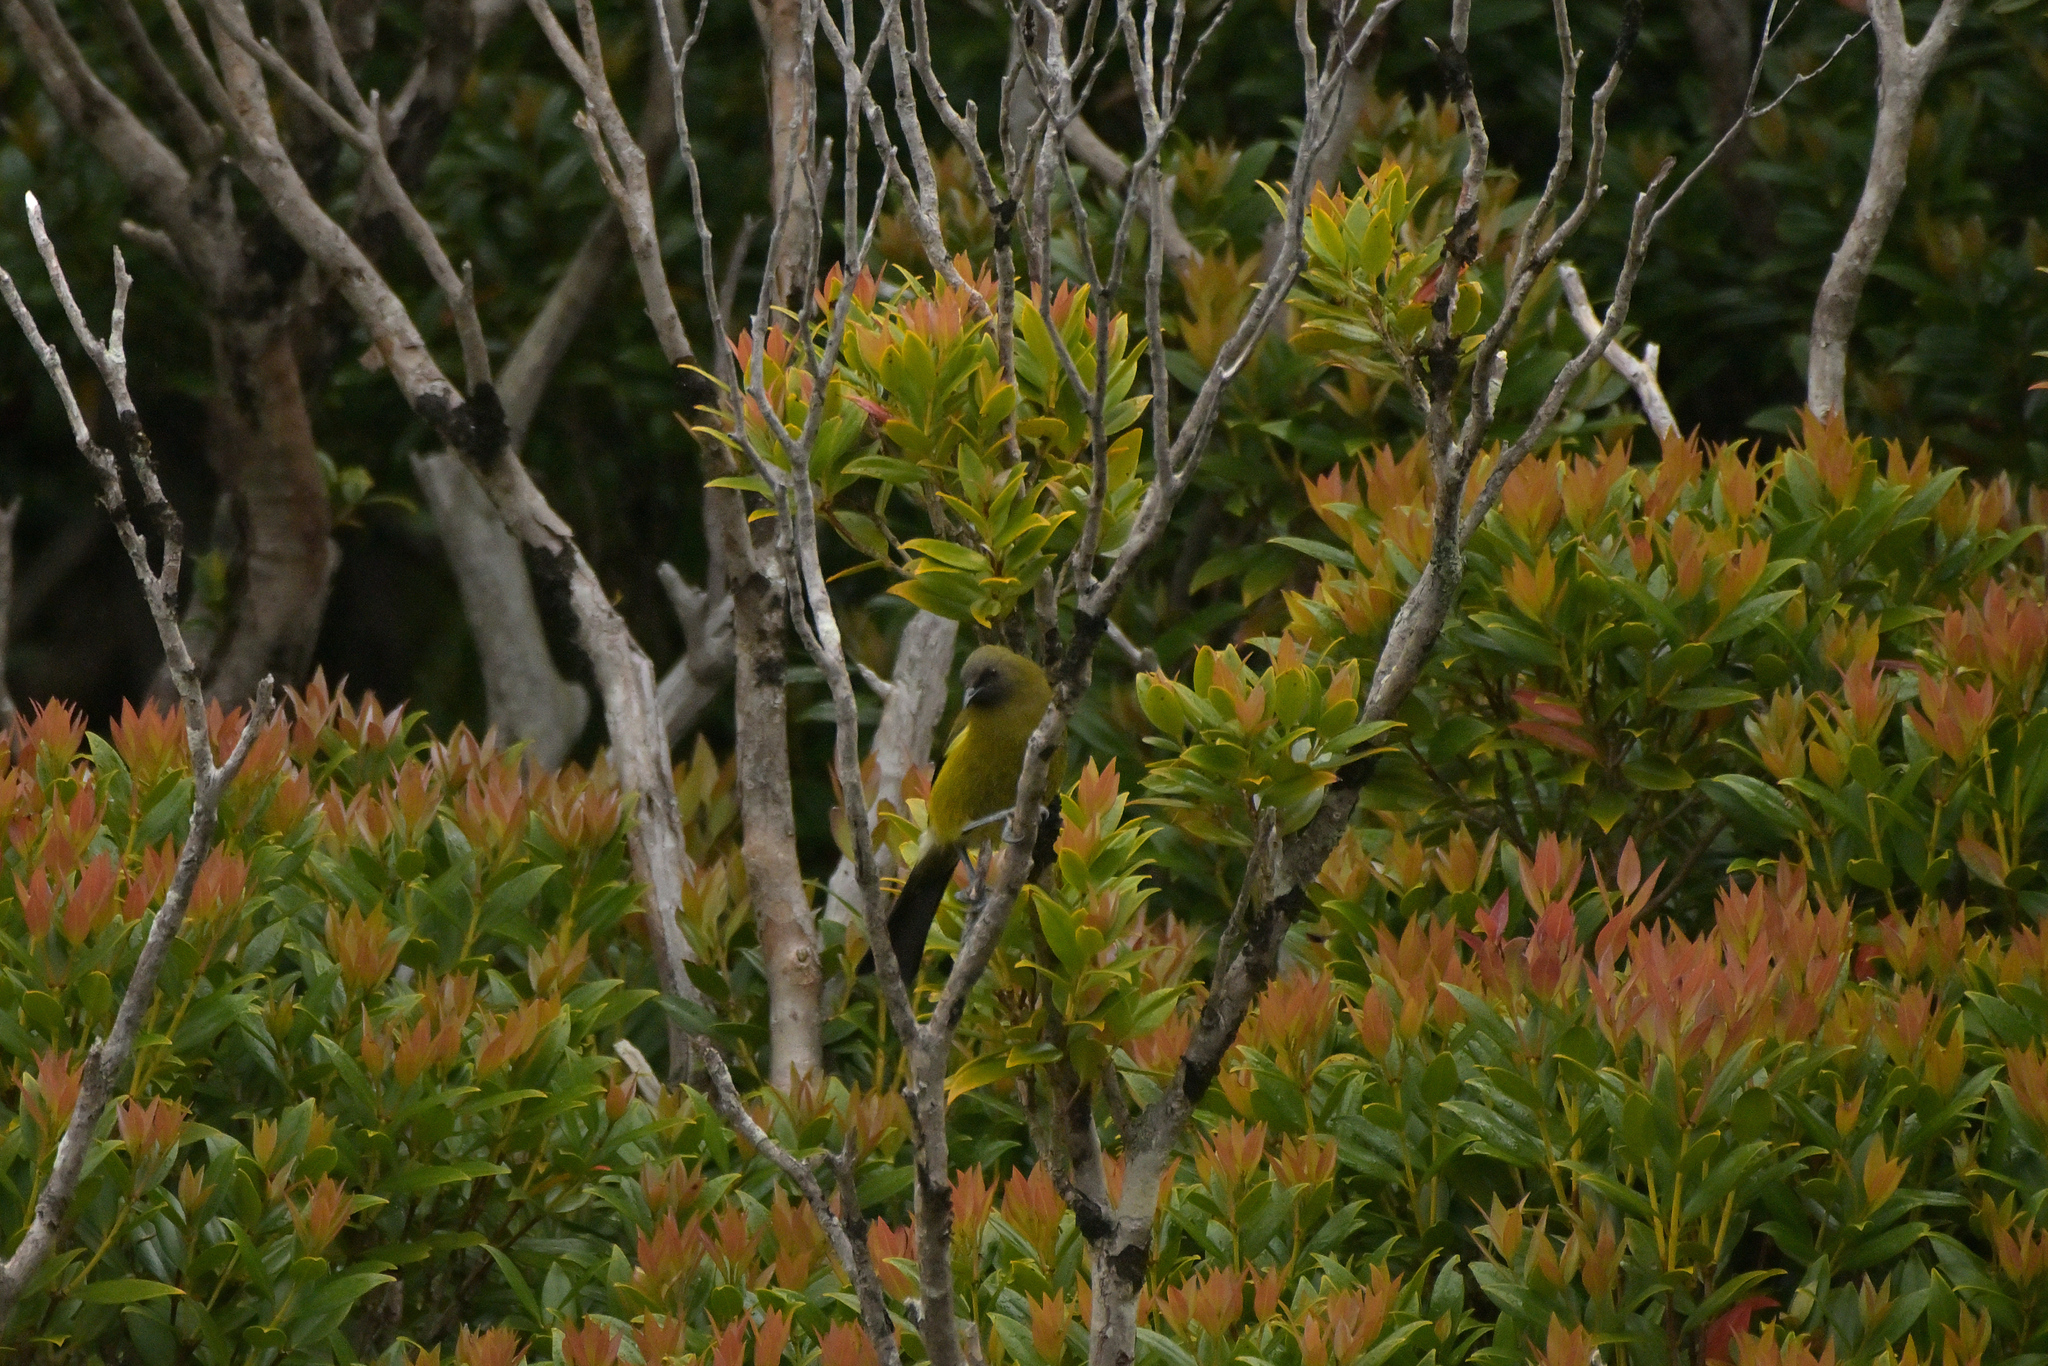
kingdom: Animalia
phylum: Chordata
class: Aves
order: Passeriformes
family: Meliphagidae
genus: Anthornis
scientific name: Anthornis melanura
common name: New zealand bellbird
